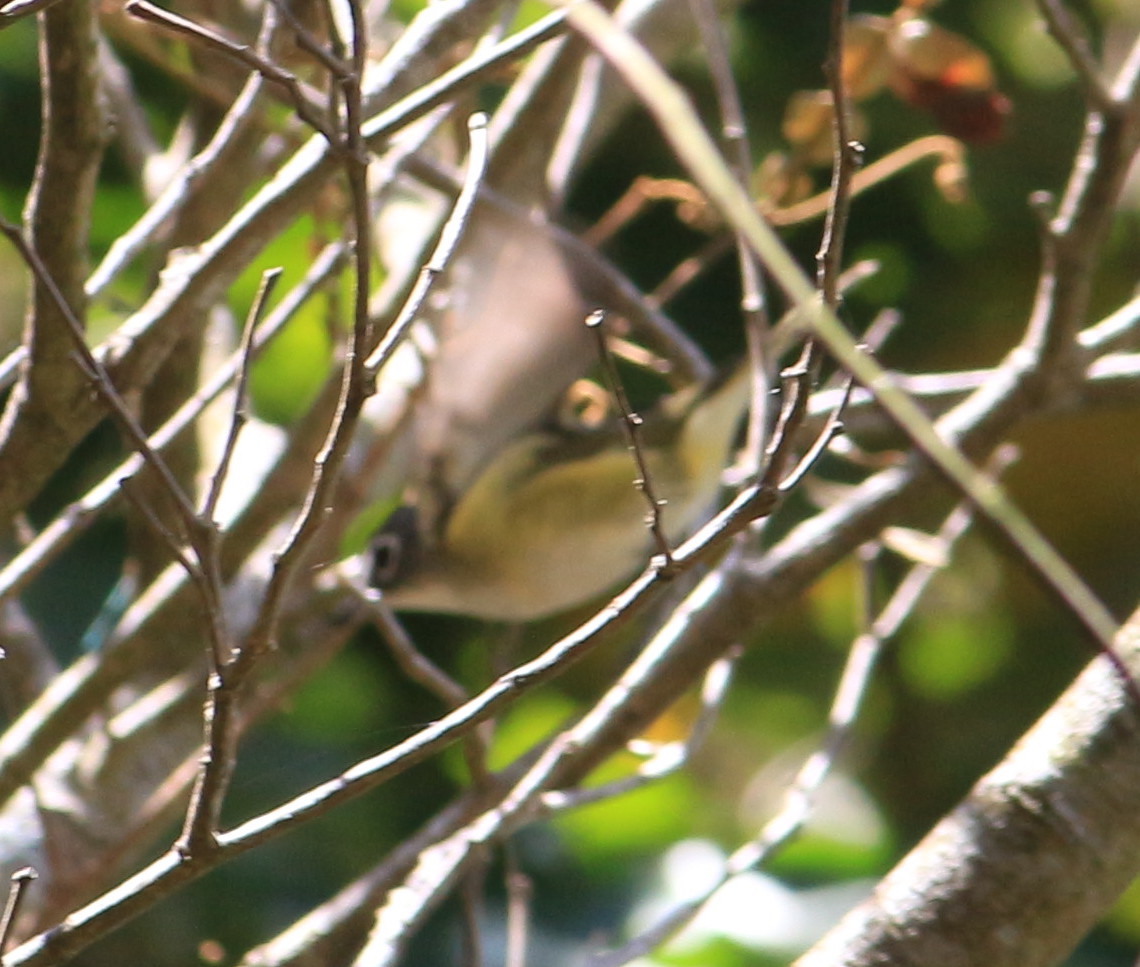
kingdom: Animalia
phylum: Chordata
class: Aves
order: Passeriformes
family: Vireonidae
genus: Vireo
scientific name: Vireo solitarius
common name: Blue-headed vireo
